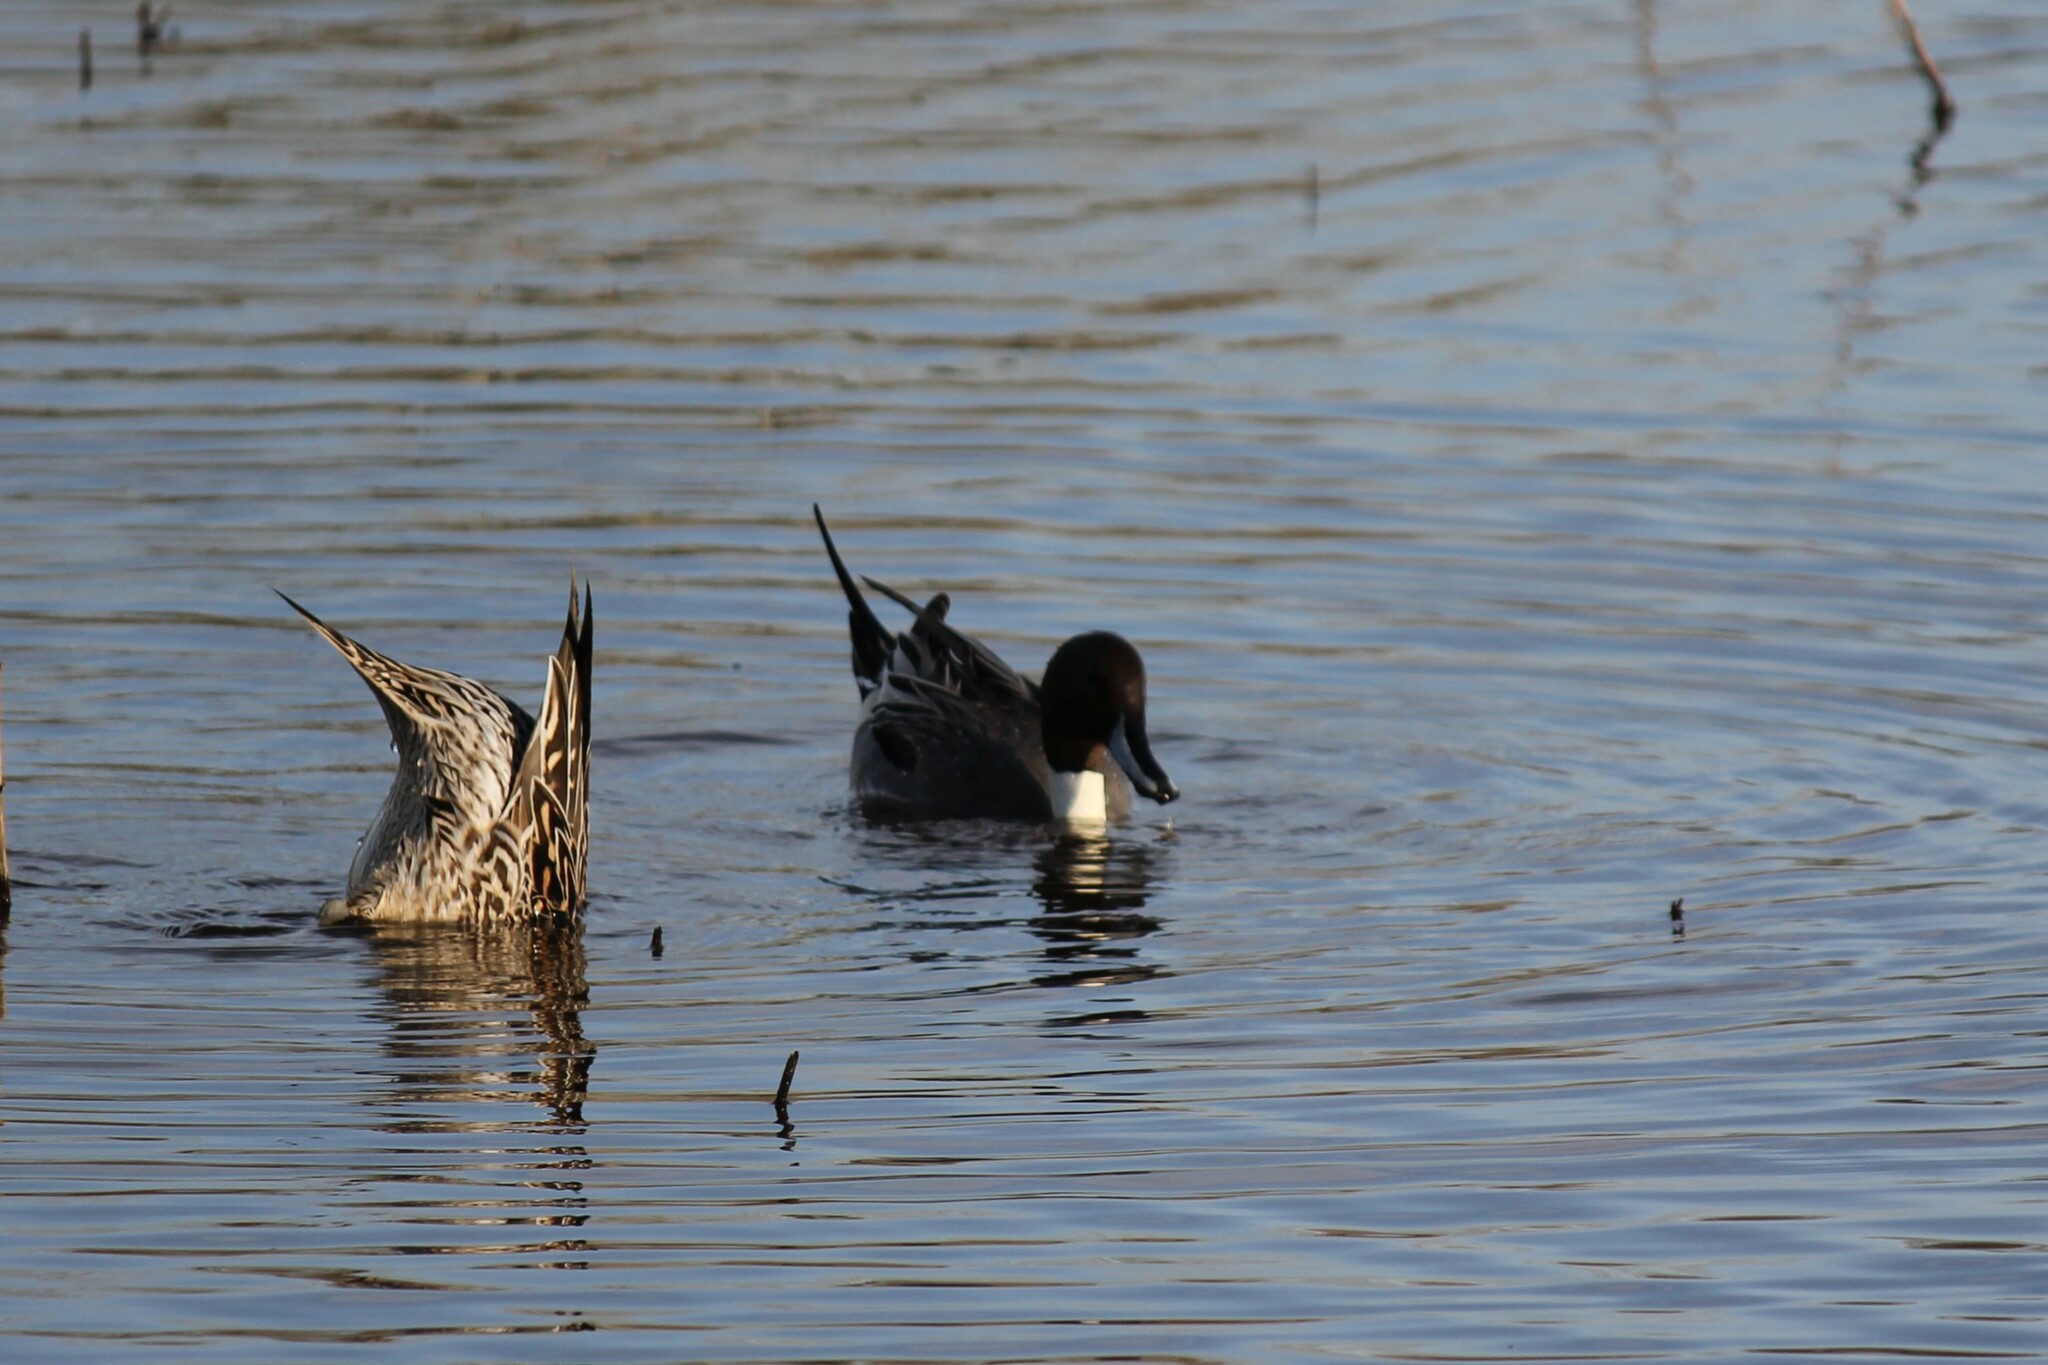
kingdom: Animalia
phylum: Chordata
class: Aves
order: Anseriformes
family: Anatidae
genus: Anas
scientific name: Anas acuta
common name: Northern pintail
